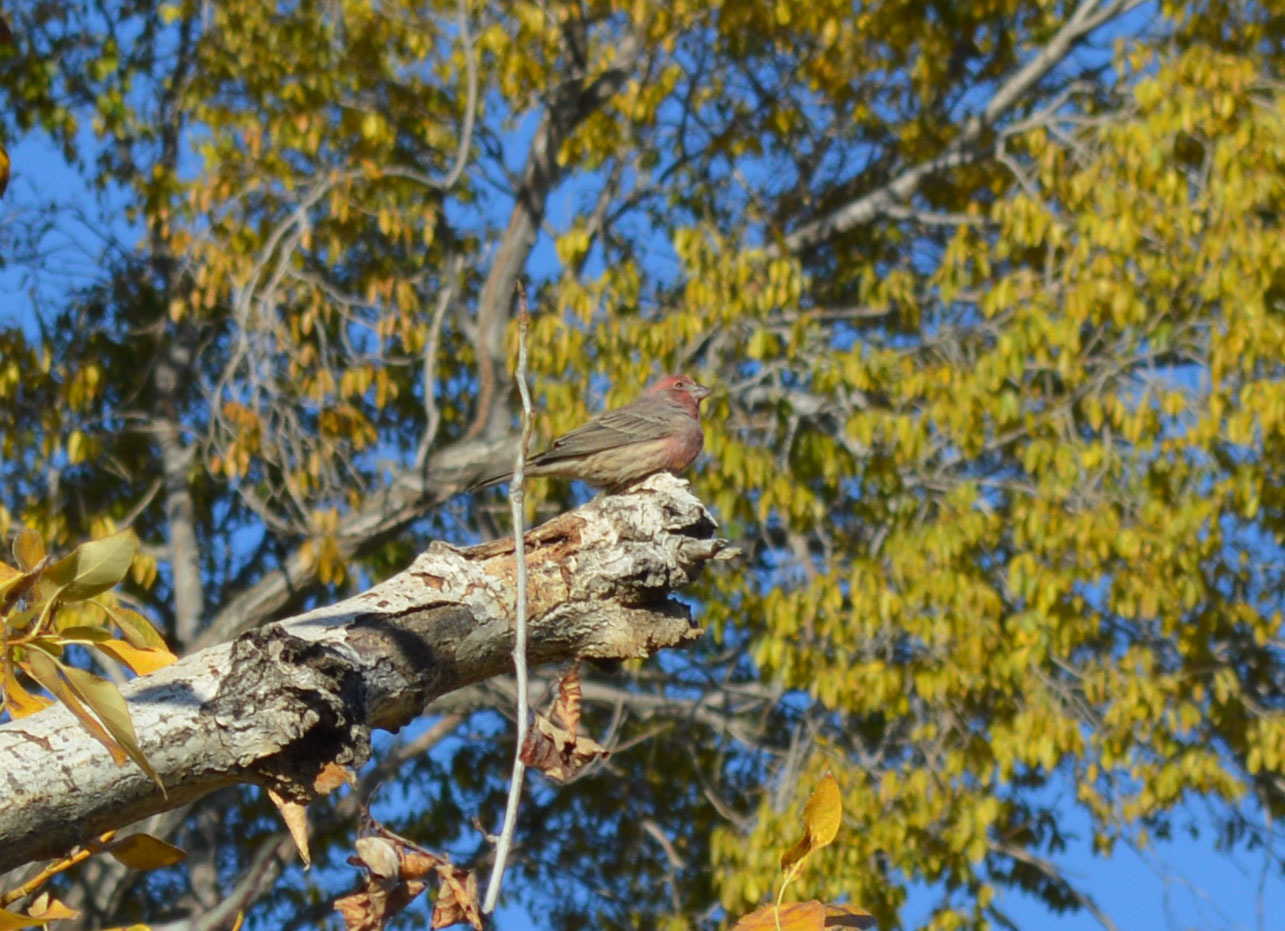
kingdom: Animalia
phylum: Chordata
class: Aves
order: Passeriformes
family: Fringillidae
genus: Haemorhous
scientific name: Haemorhous mexicanus
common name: House finch
